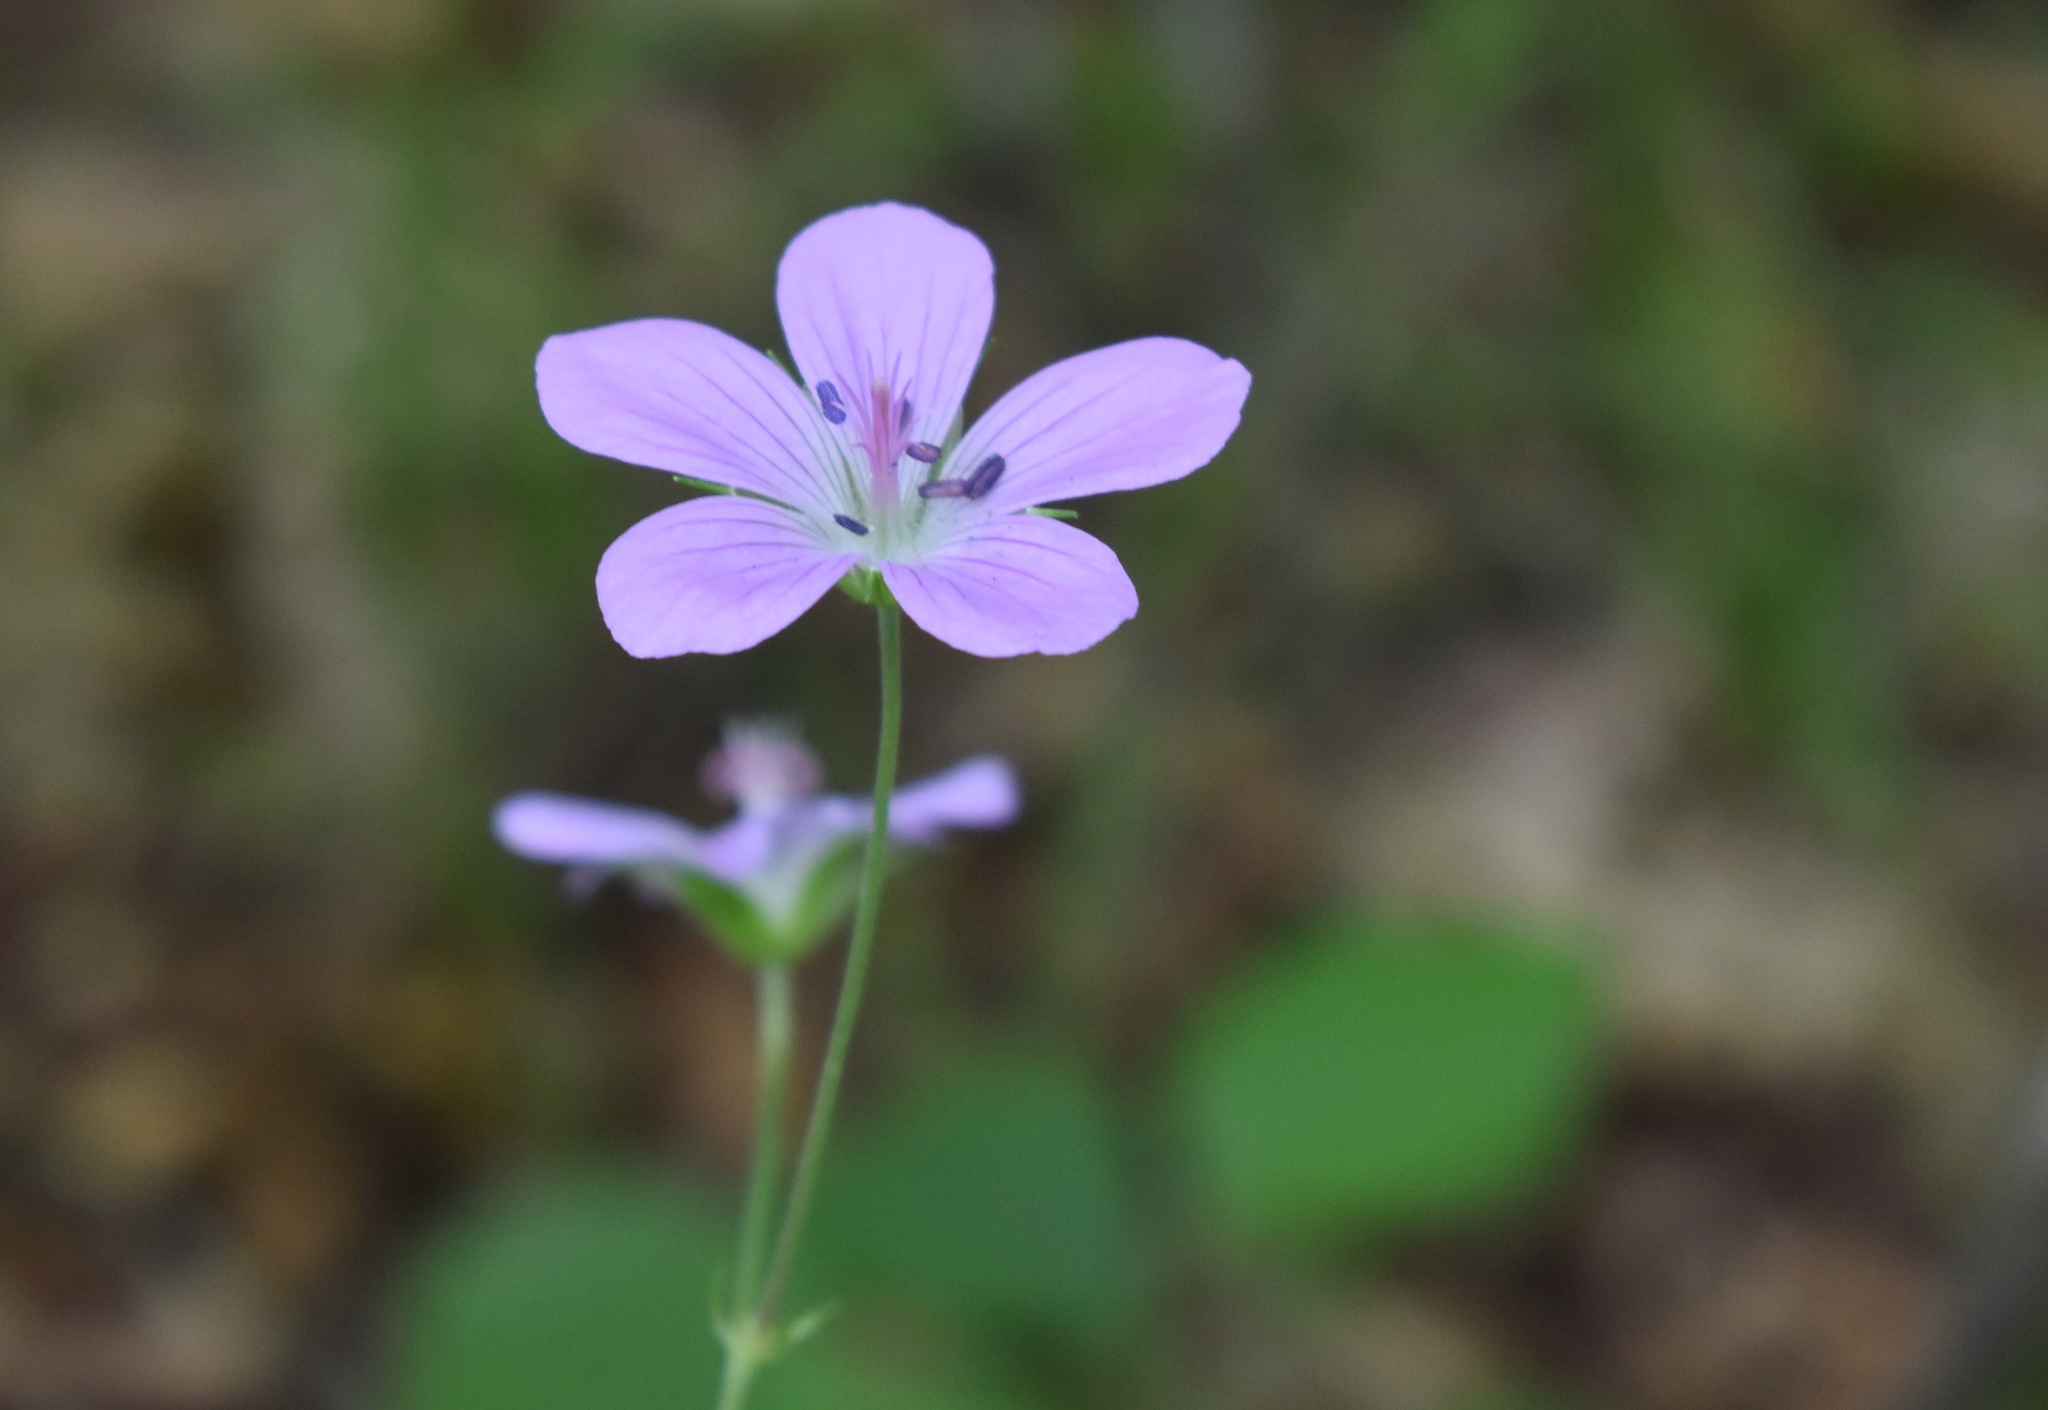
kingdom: Plantae
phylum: Tracheophyta
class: Magnoliopsida
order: Geraniales
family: Geraniaceae
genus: Geranium
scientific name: Geranium maximowiczii
